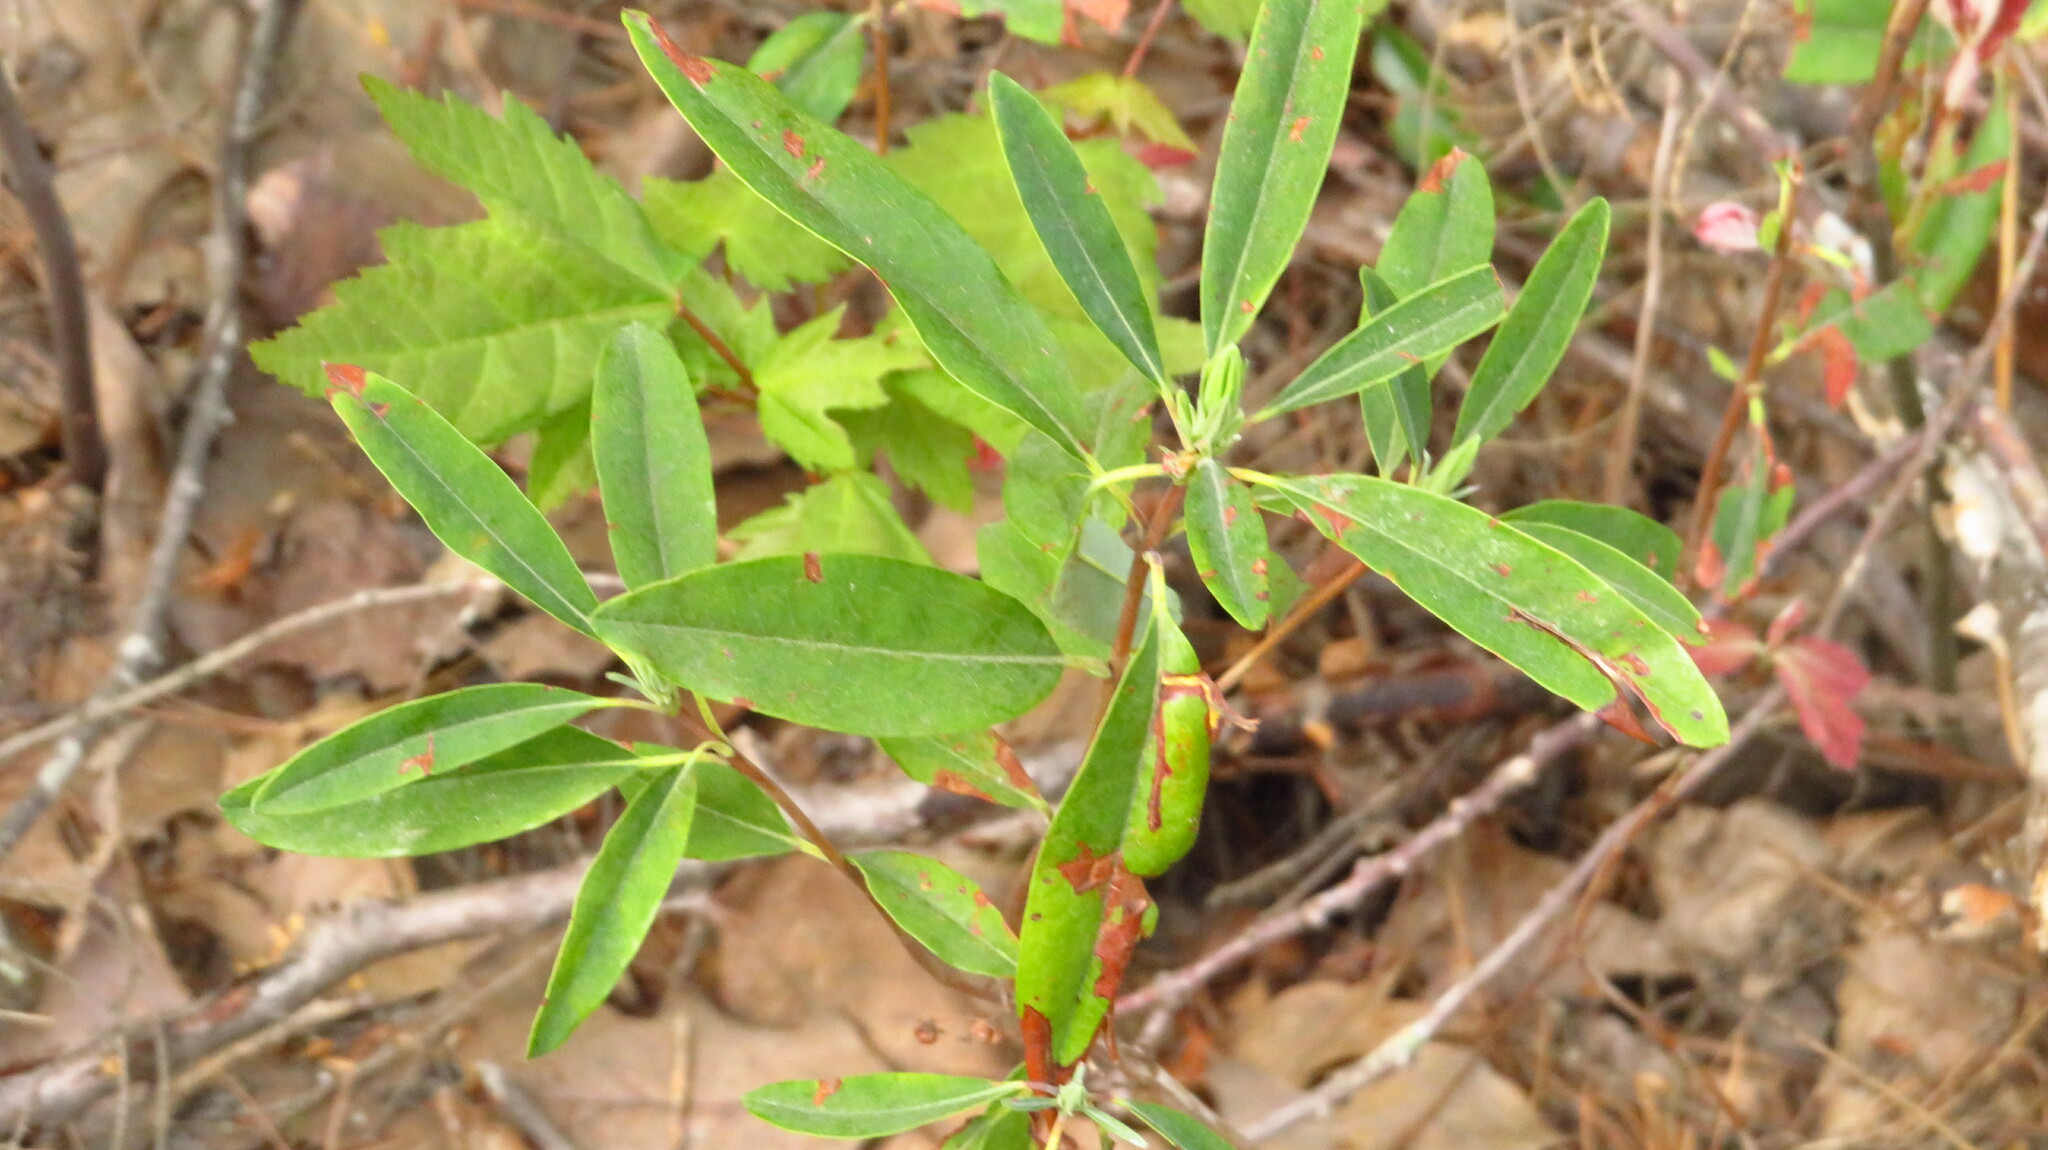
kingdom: Plantae
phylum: Tracheophyta
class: Magnoliopsida
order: Ericales
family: Ericaceae
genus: Kalmia
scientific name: Kalmia angustifolia
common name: Sheep-laurel
